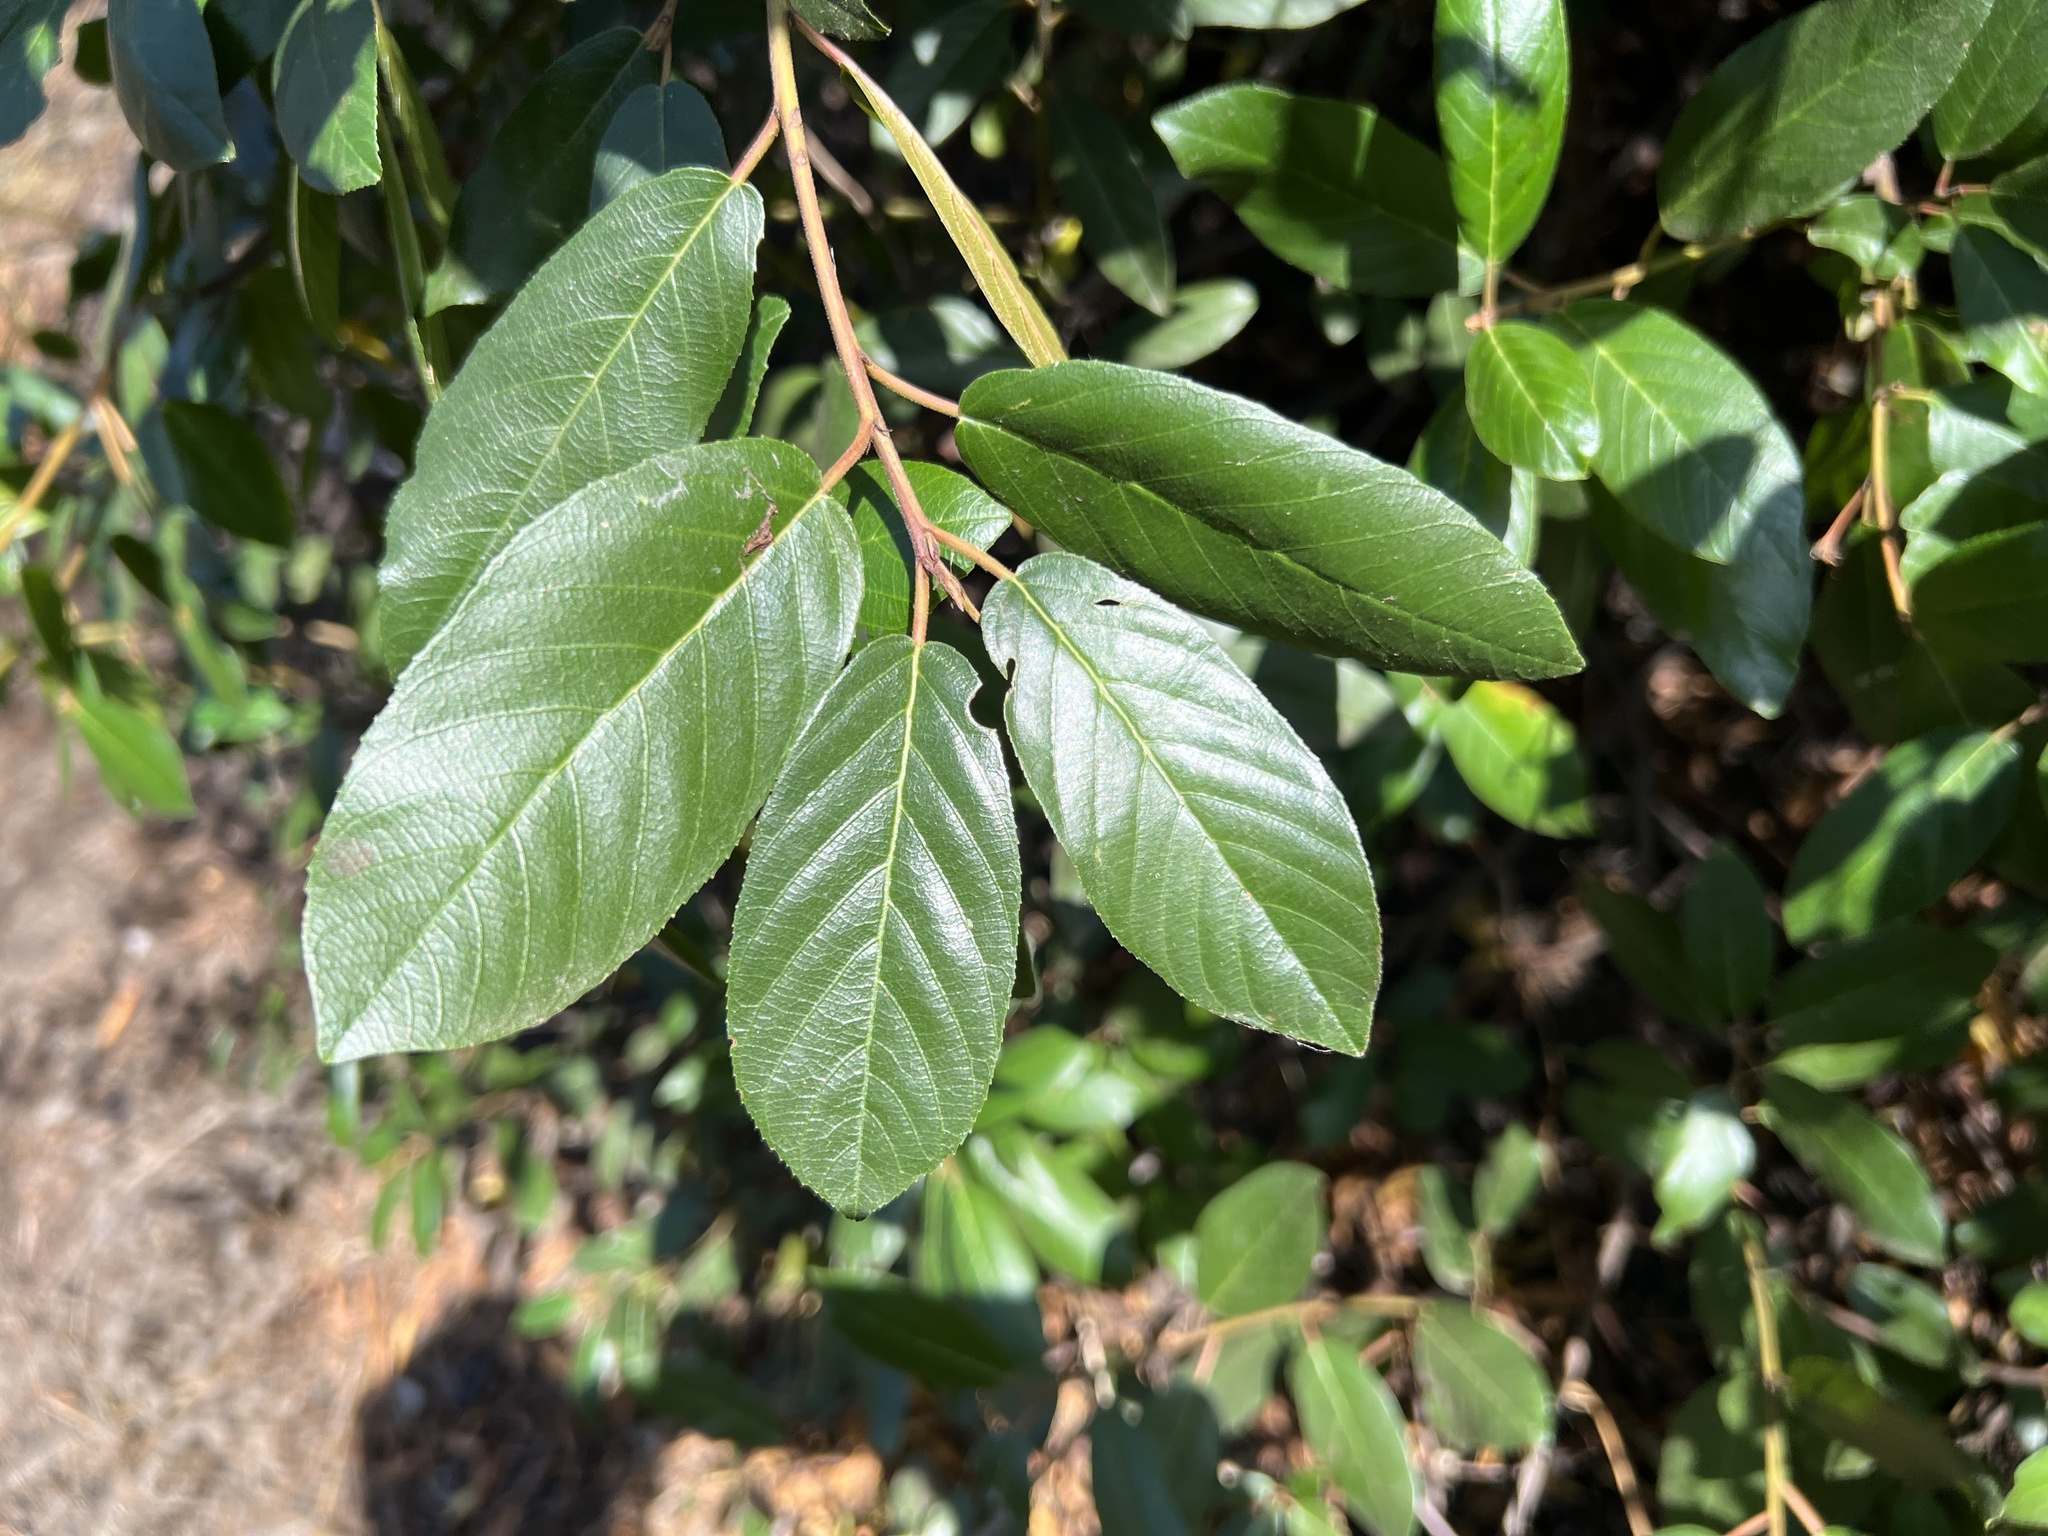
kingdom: Plantae
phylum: Tracheophyta
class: Magnoliopsida
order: Rosales
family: Rhamnaceae
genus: Frangula
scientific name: Frangula californica
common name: California buckthorn
